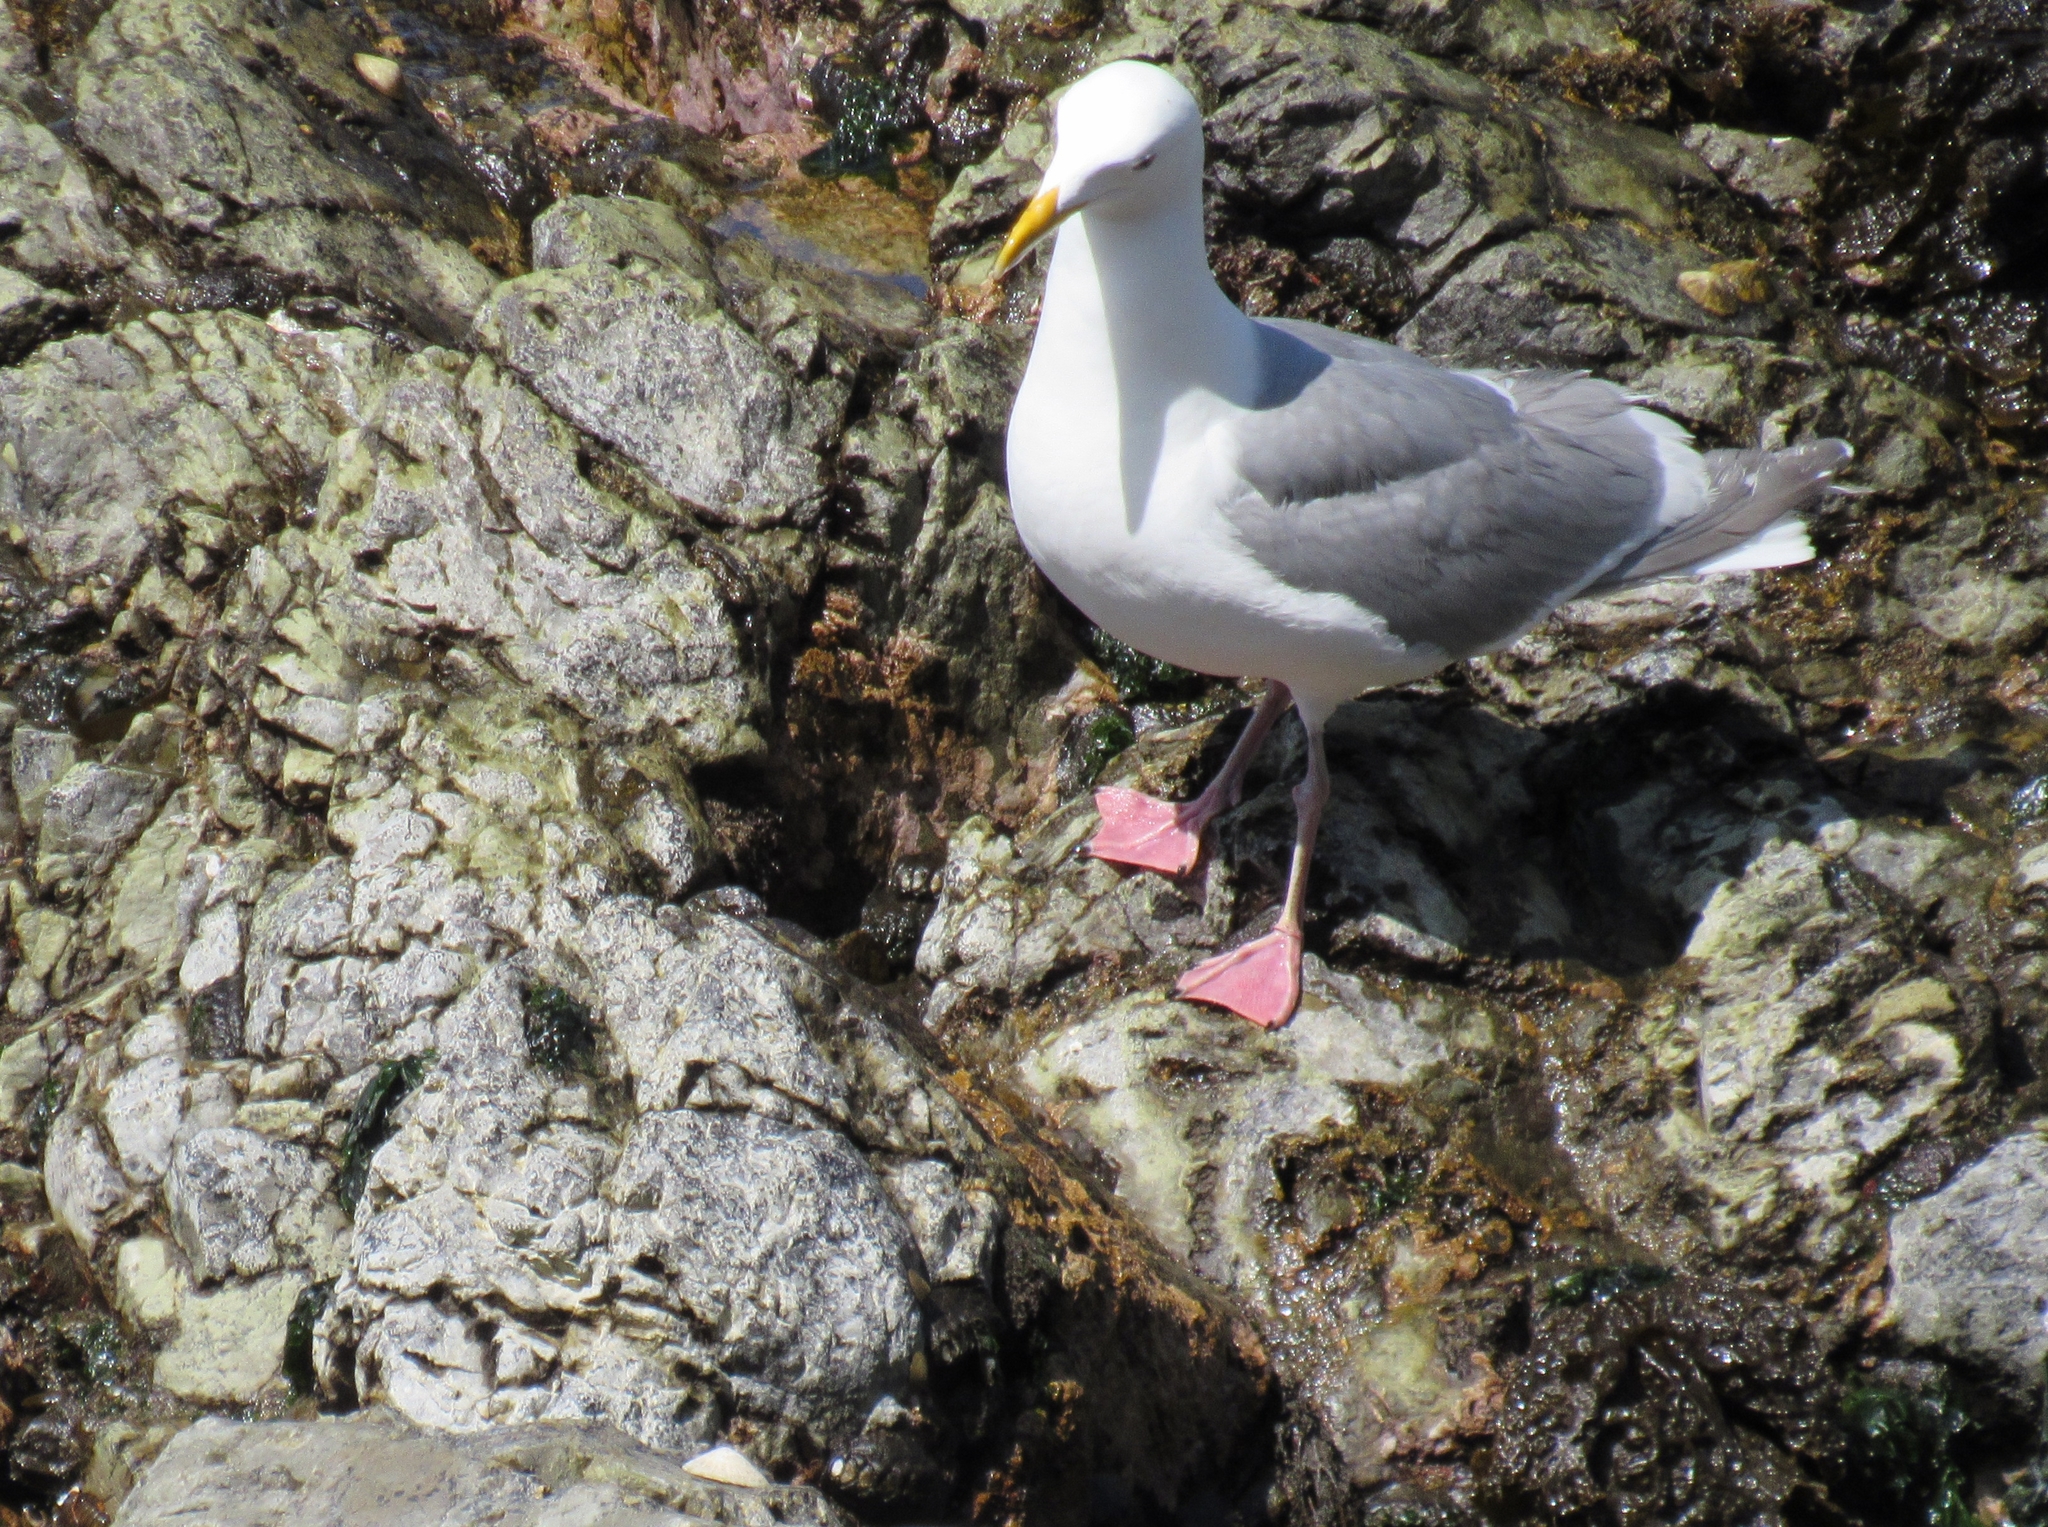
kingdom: Animalia
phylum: Chordata
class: Aves
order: Charadriiformes
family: Laridae
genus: Larus
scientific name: Larus glaucescens
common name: Glaucous-winged gull
